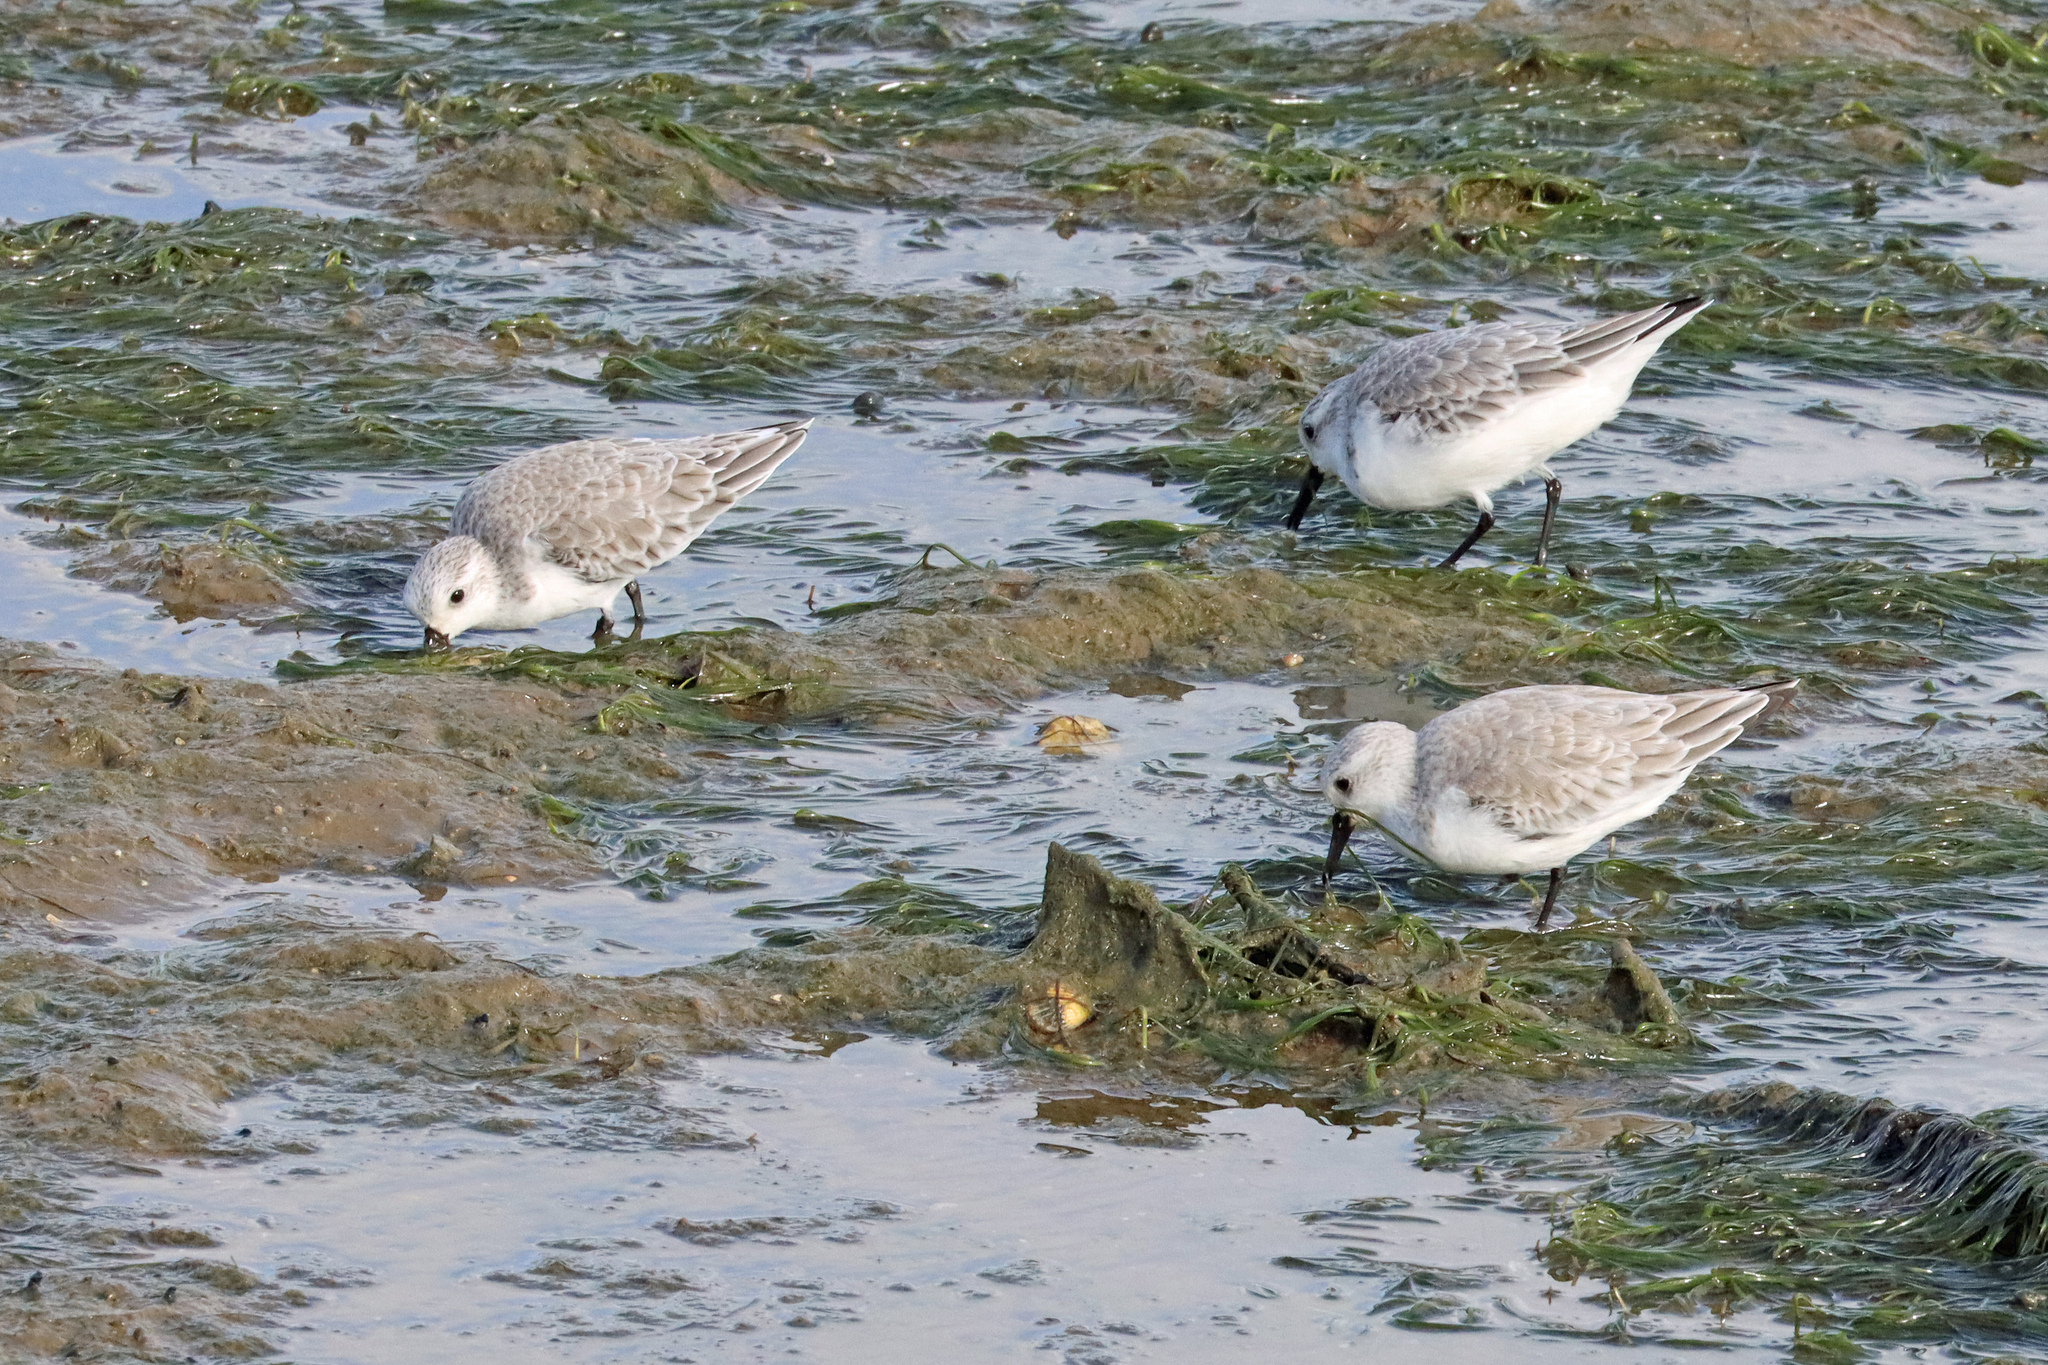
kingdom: Animalia
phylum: Chordata
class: Aves
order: Charadriiformes
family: Scolopacidae
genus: Calidris
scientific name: Calidris alba
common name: Sanderling
